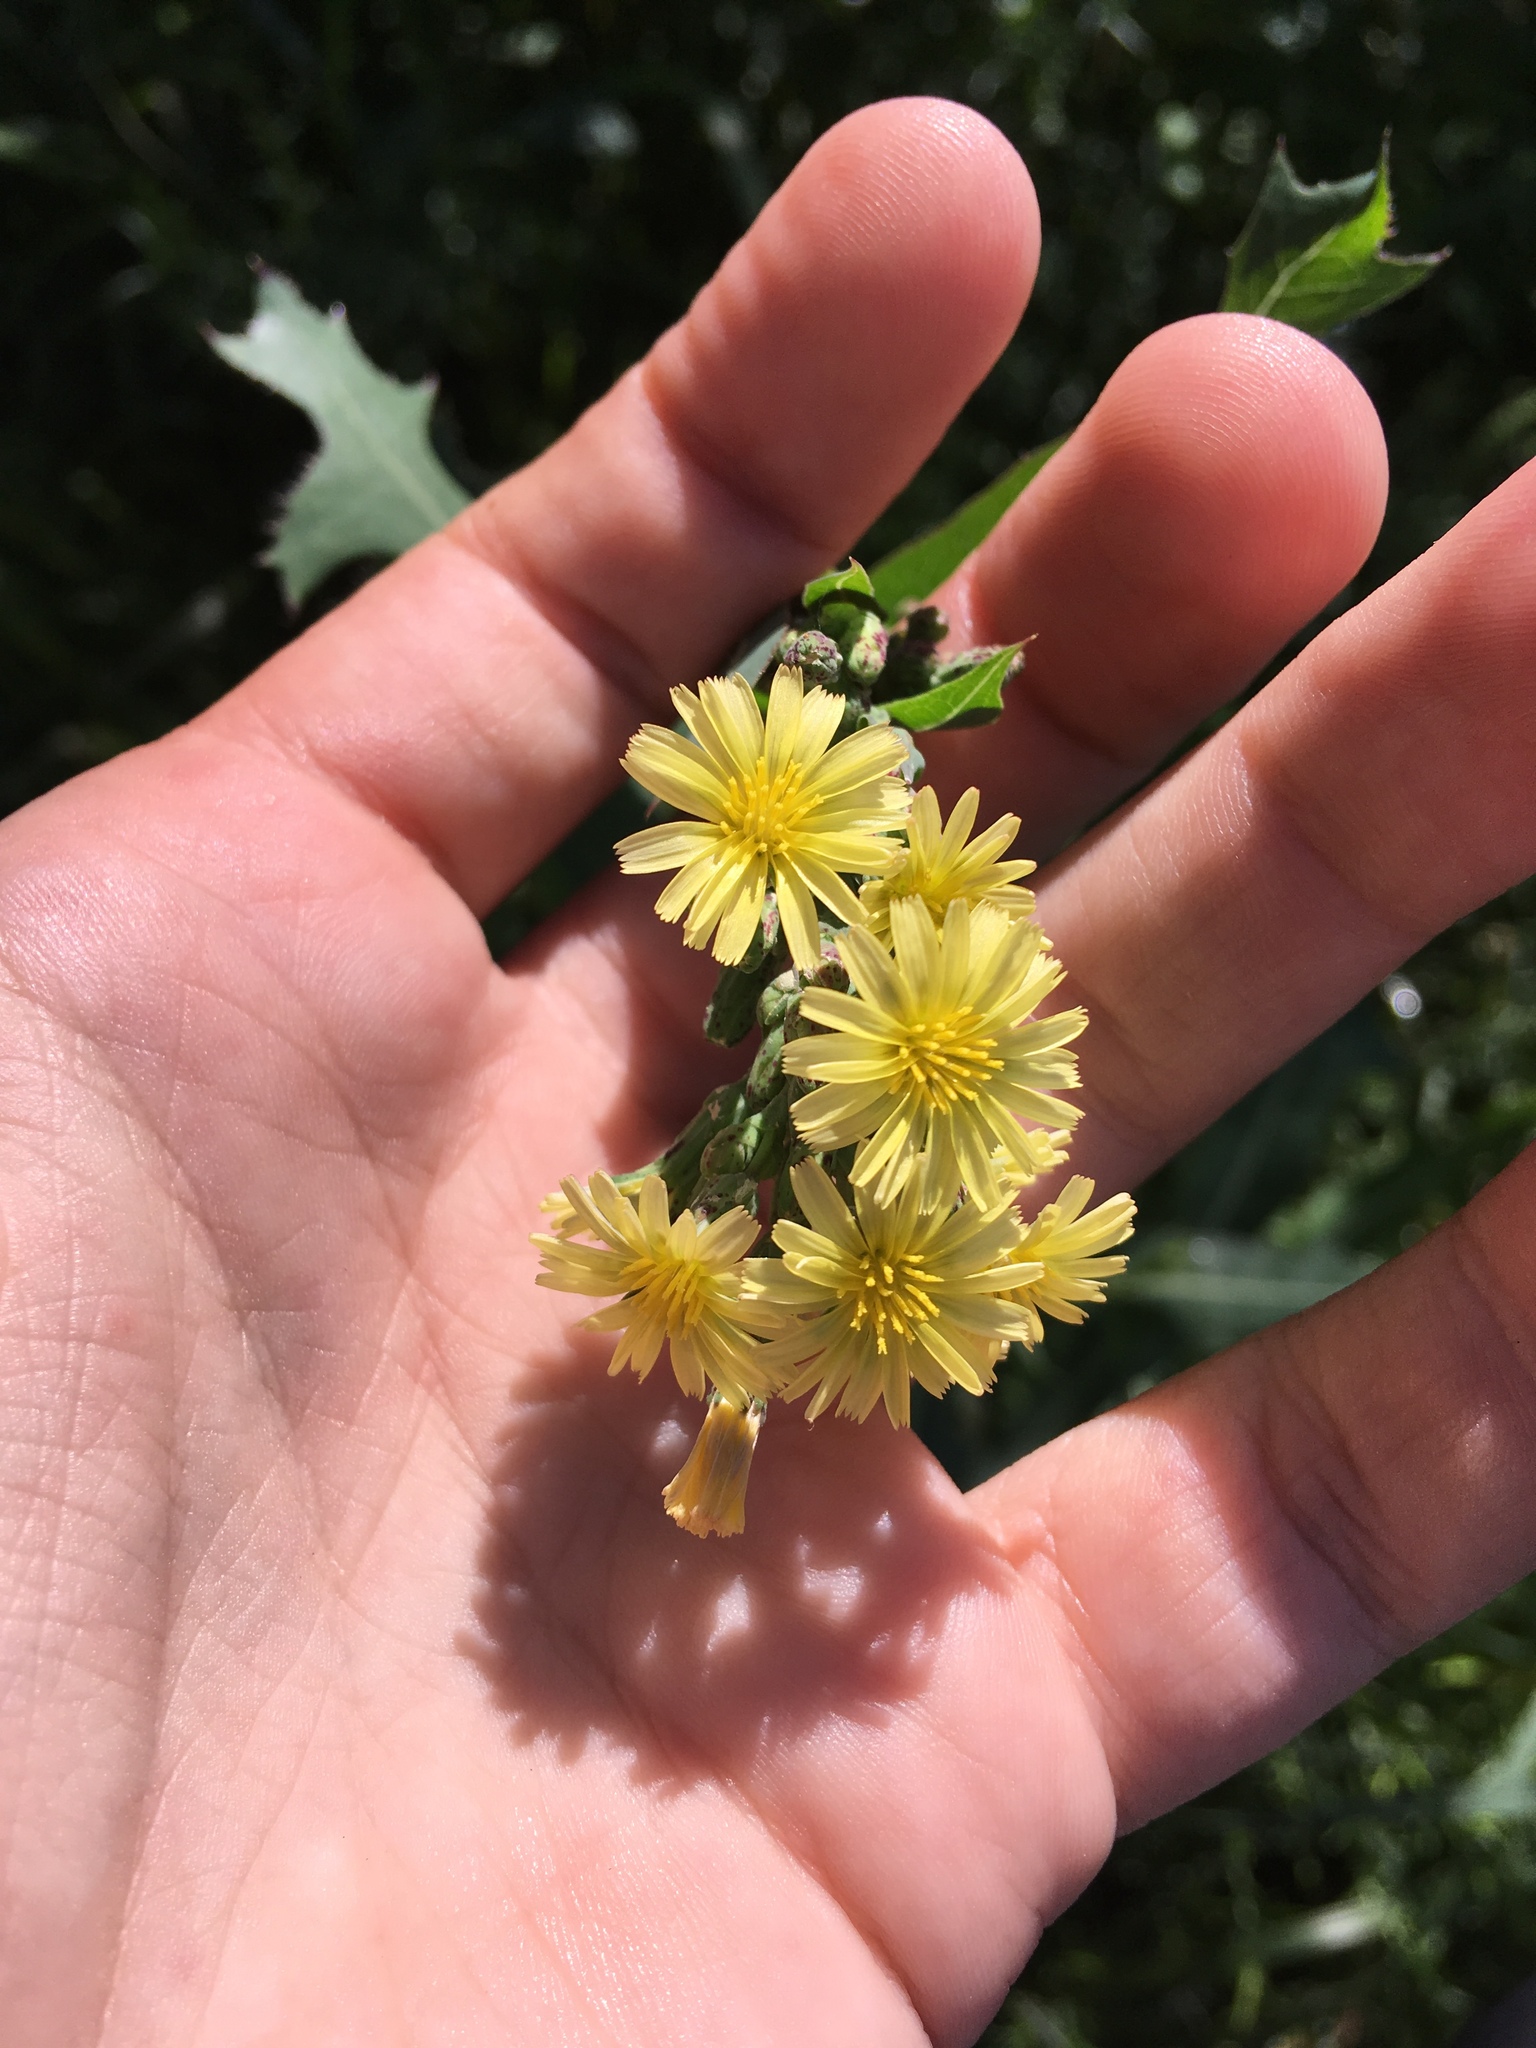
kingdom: Plantae
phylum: Tracheophyta
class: Magnoliopsida
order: Asterales
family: Asteraceae
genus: Lactuca
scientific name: Lactuca serriola
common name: Prickly lettuce
